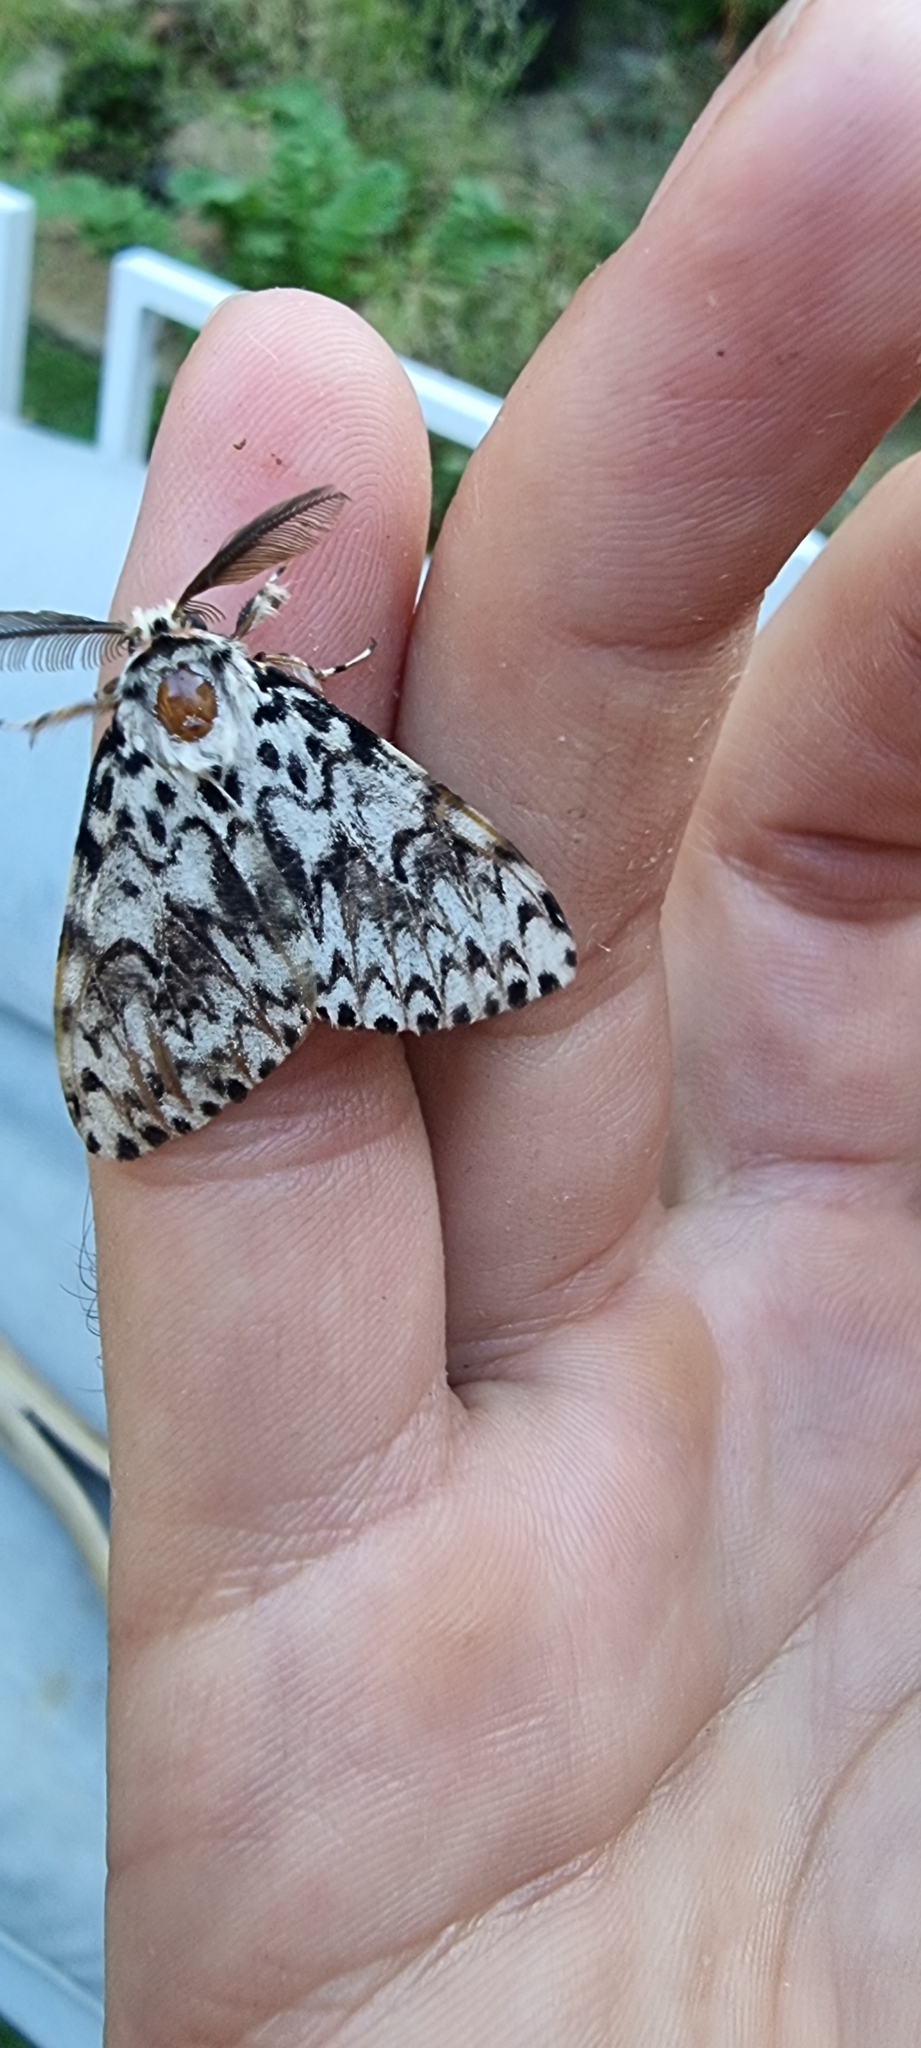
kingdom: Animalia
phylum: Arthropoda
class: Insecta
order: Lepidoptera
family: Erebidae
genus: Lymantria
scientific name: Lymantria monacha
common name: Black arches
